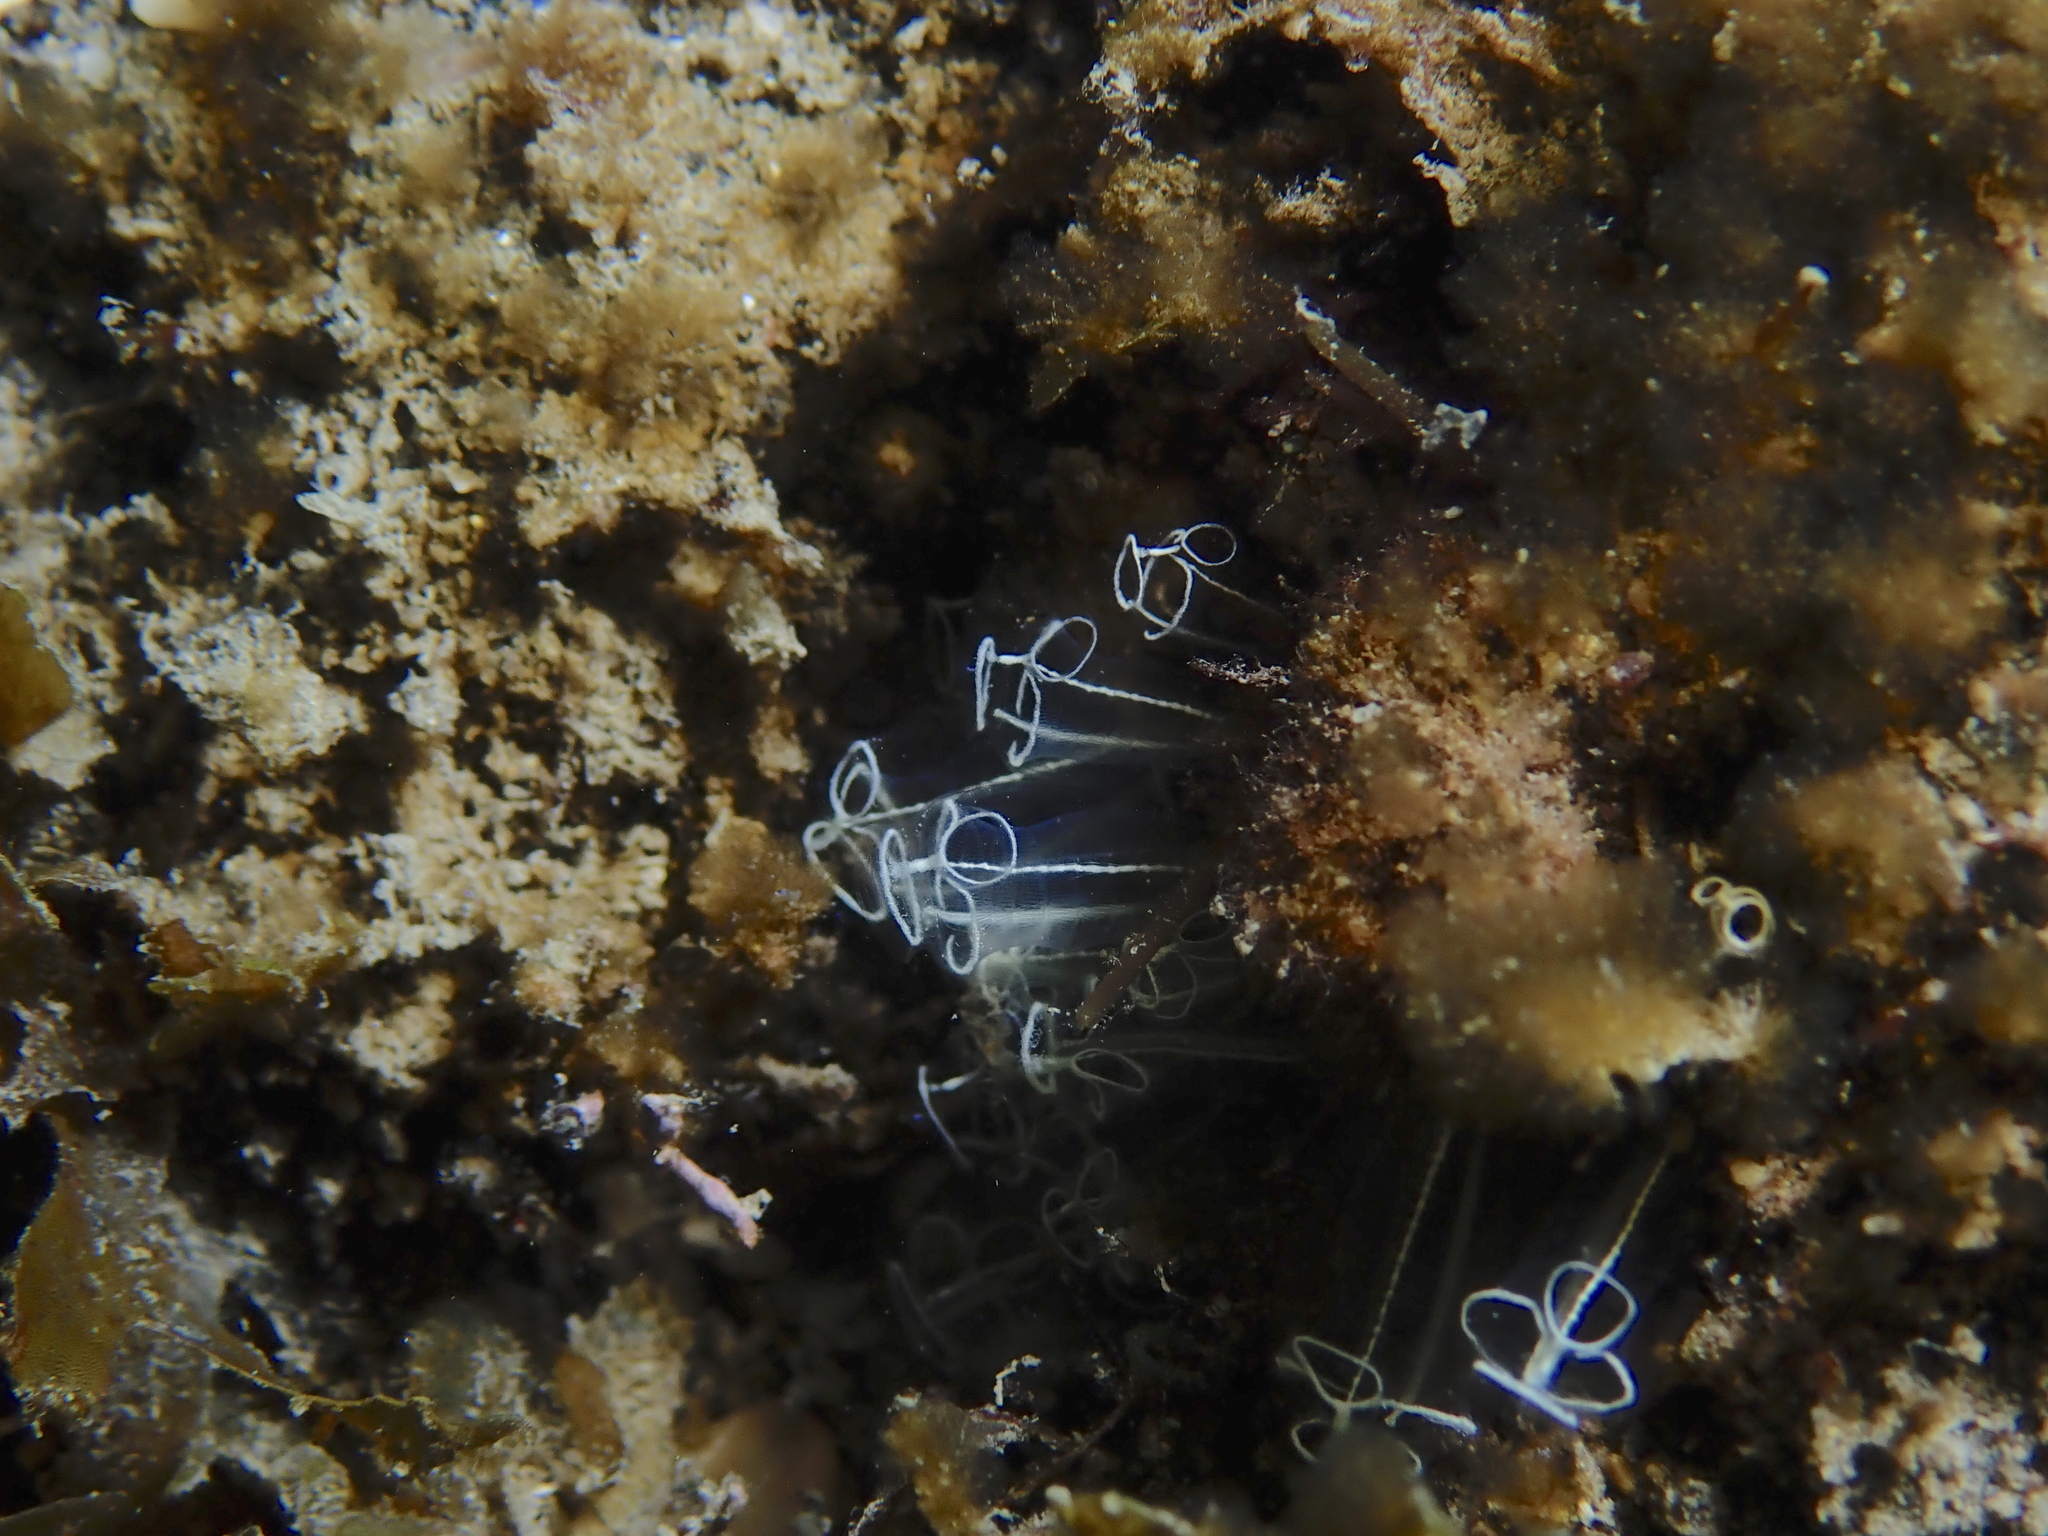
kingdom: Animalia
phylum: Chordata
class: Ascidiacea
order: Aplousobranchia
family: Clavelinidae
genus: Clavelina
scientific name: Clavelina lepadiformis
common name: Light bulb tunicate
